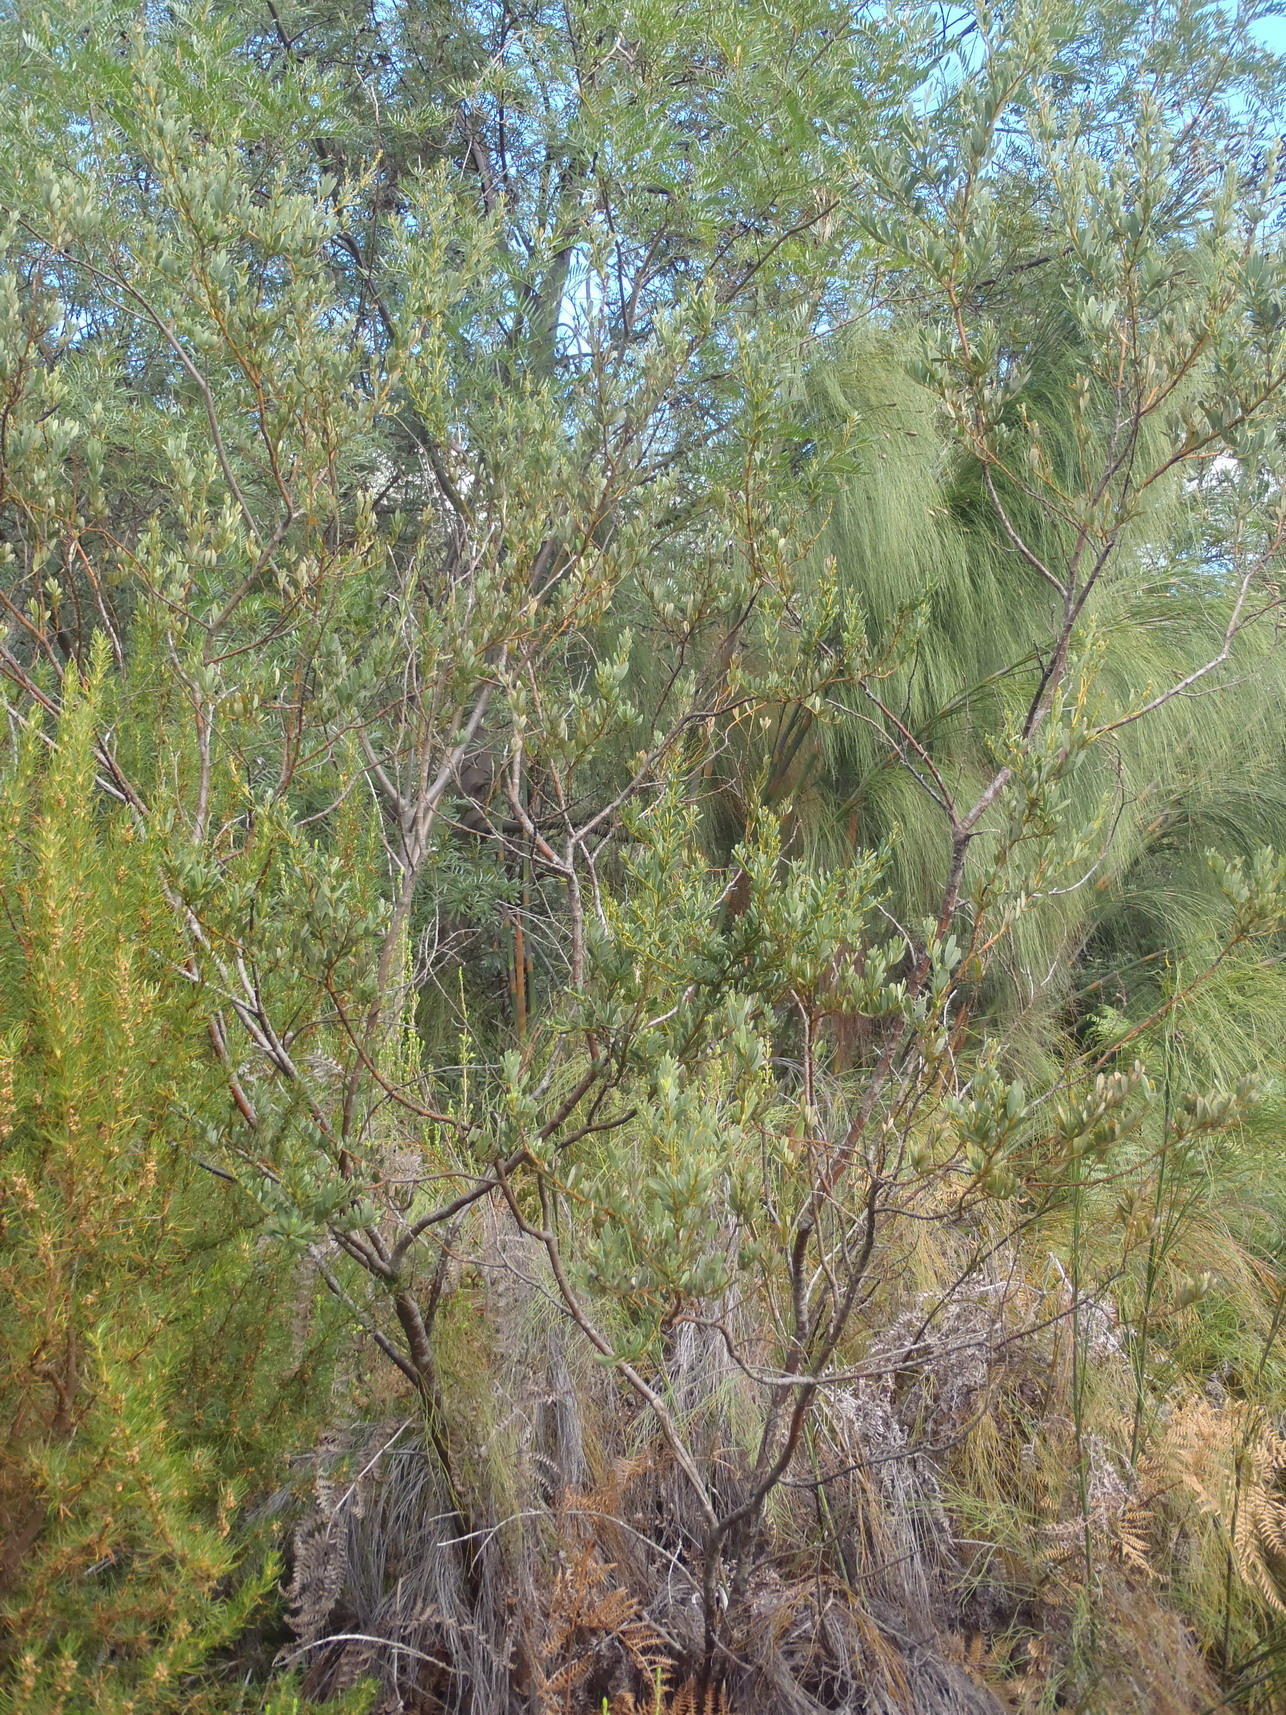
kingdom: Plantae
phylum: Tracheophyta
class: Magnoliopsida
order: Fabales
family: Fabaceae
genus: Cyclopia
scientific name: Cyclopia subternata
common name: Honeybush tea
